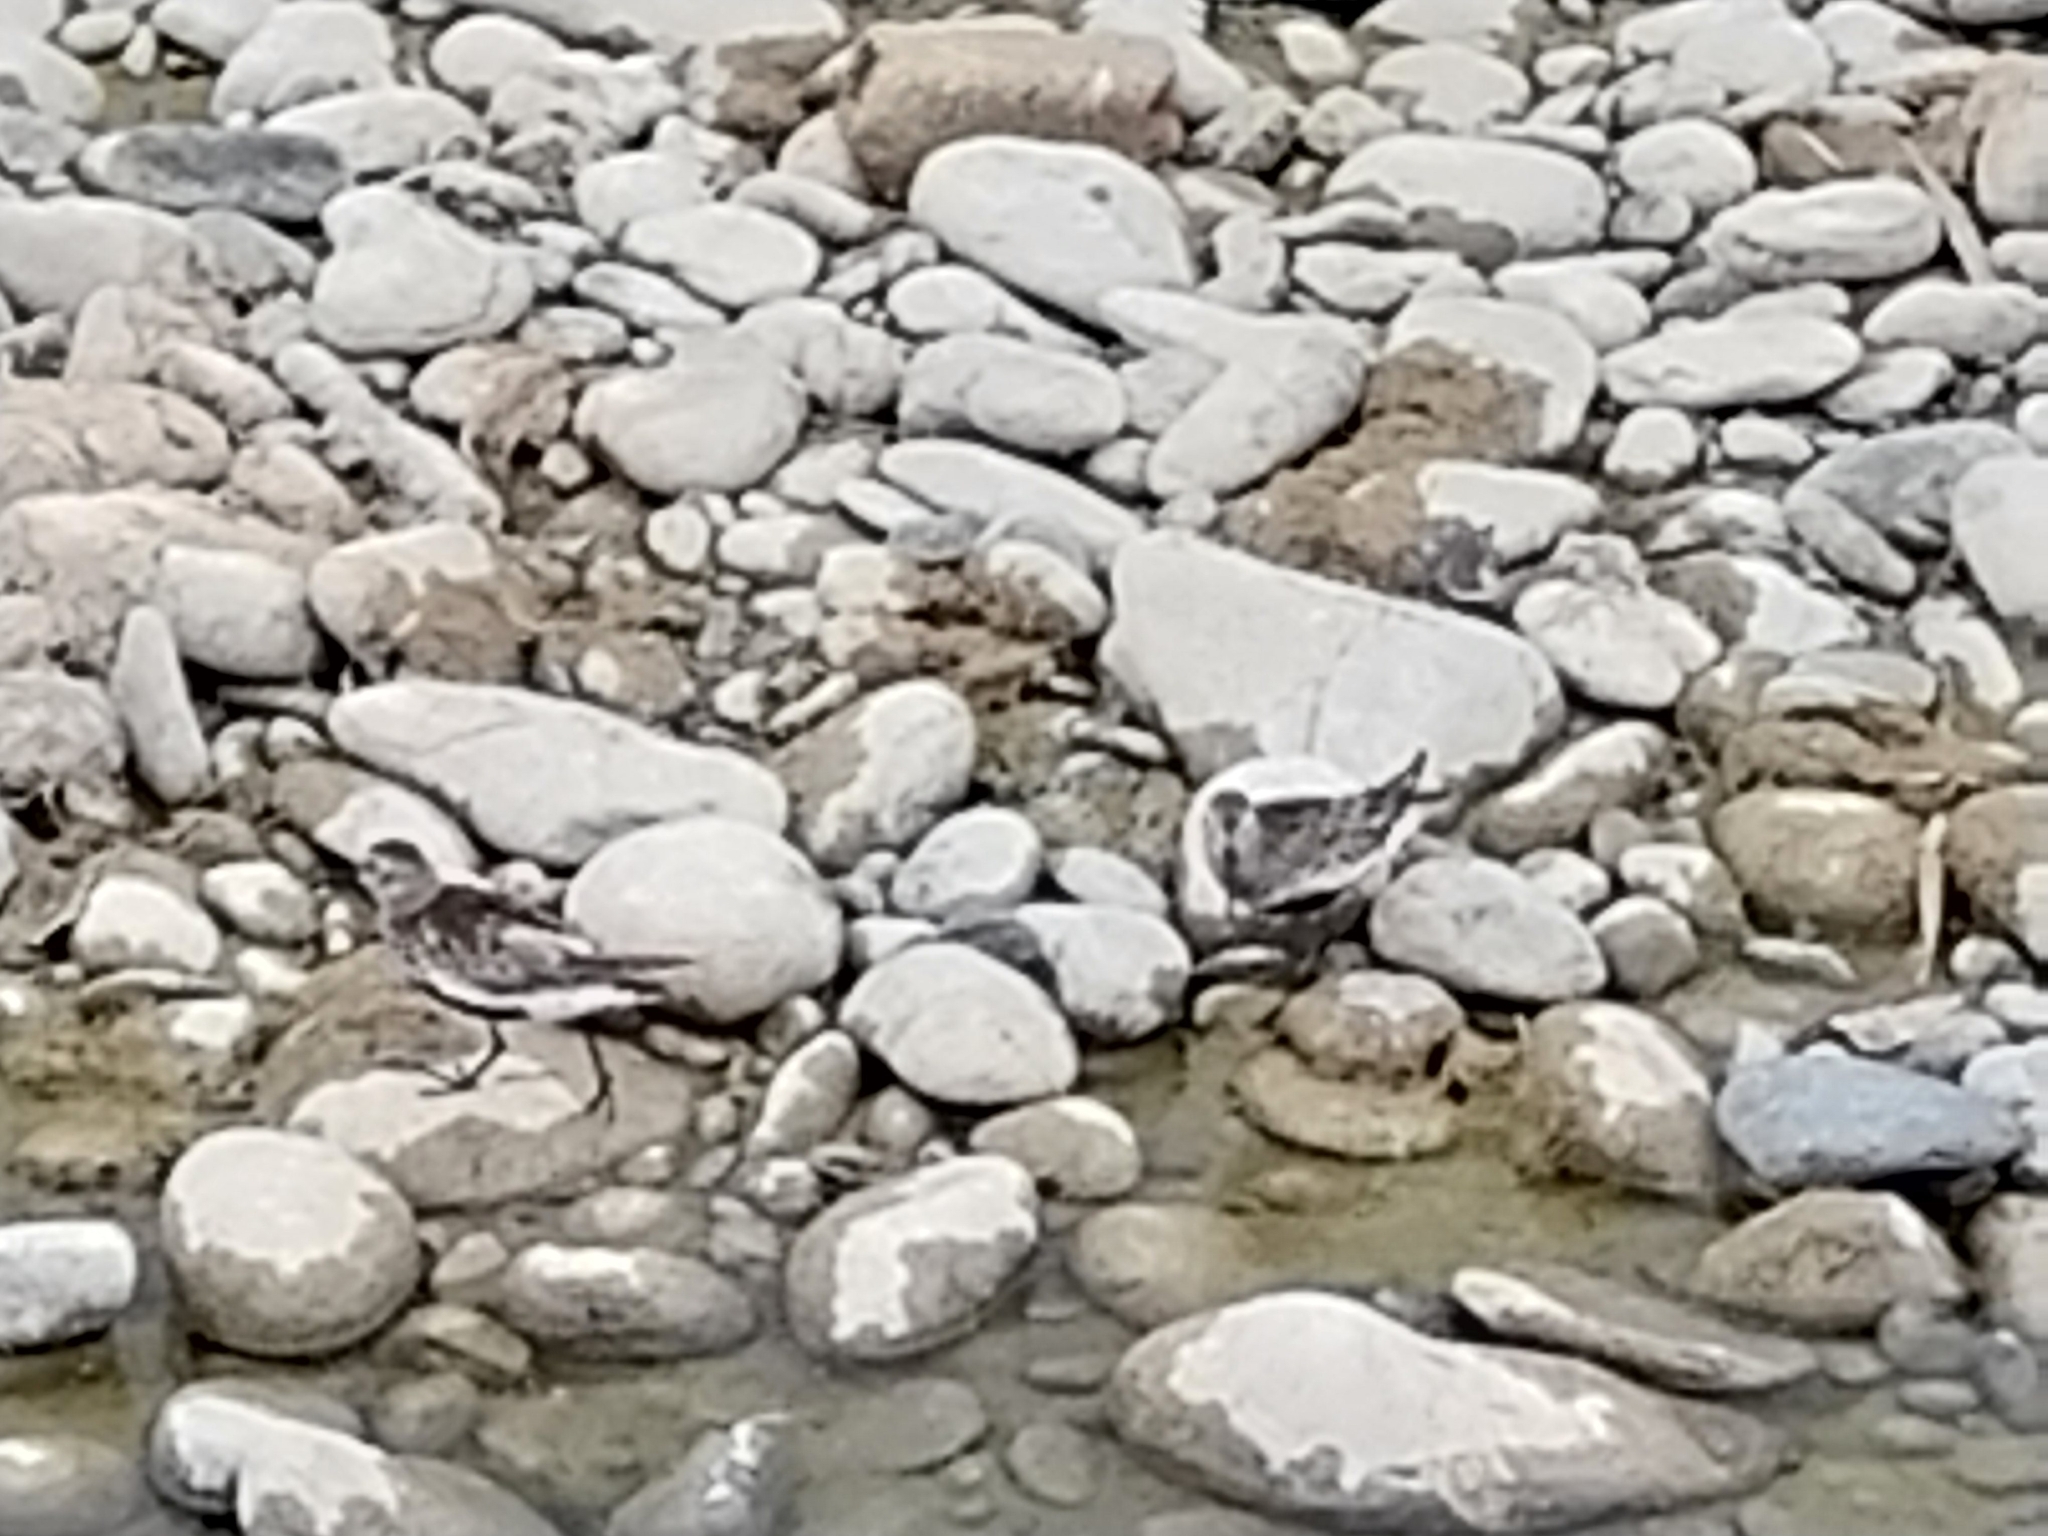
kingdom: Animalia
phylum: Chordata
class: Aves
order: Charadriiformes
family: Scolopacidae
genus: Calidris
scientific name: Calidris alpina
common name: Dunlin
